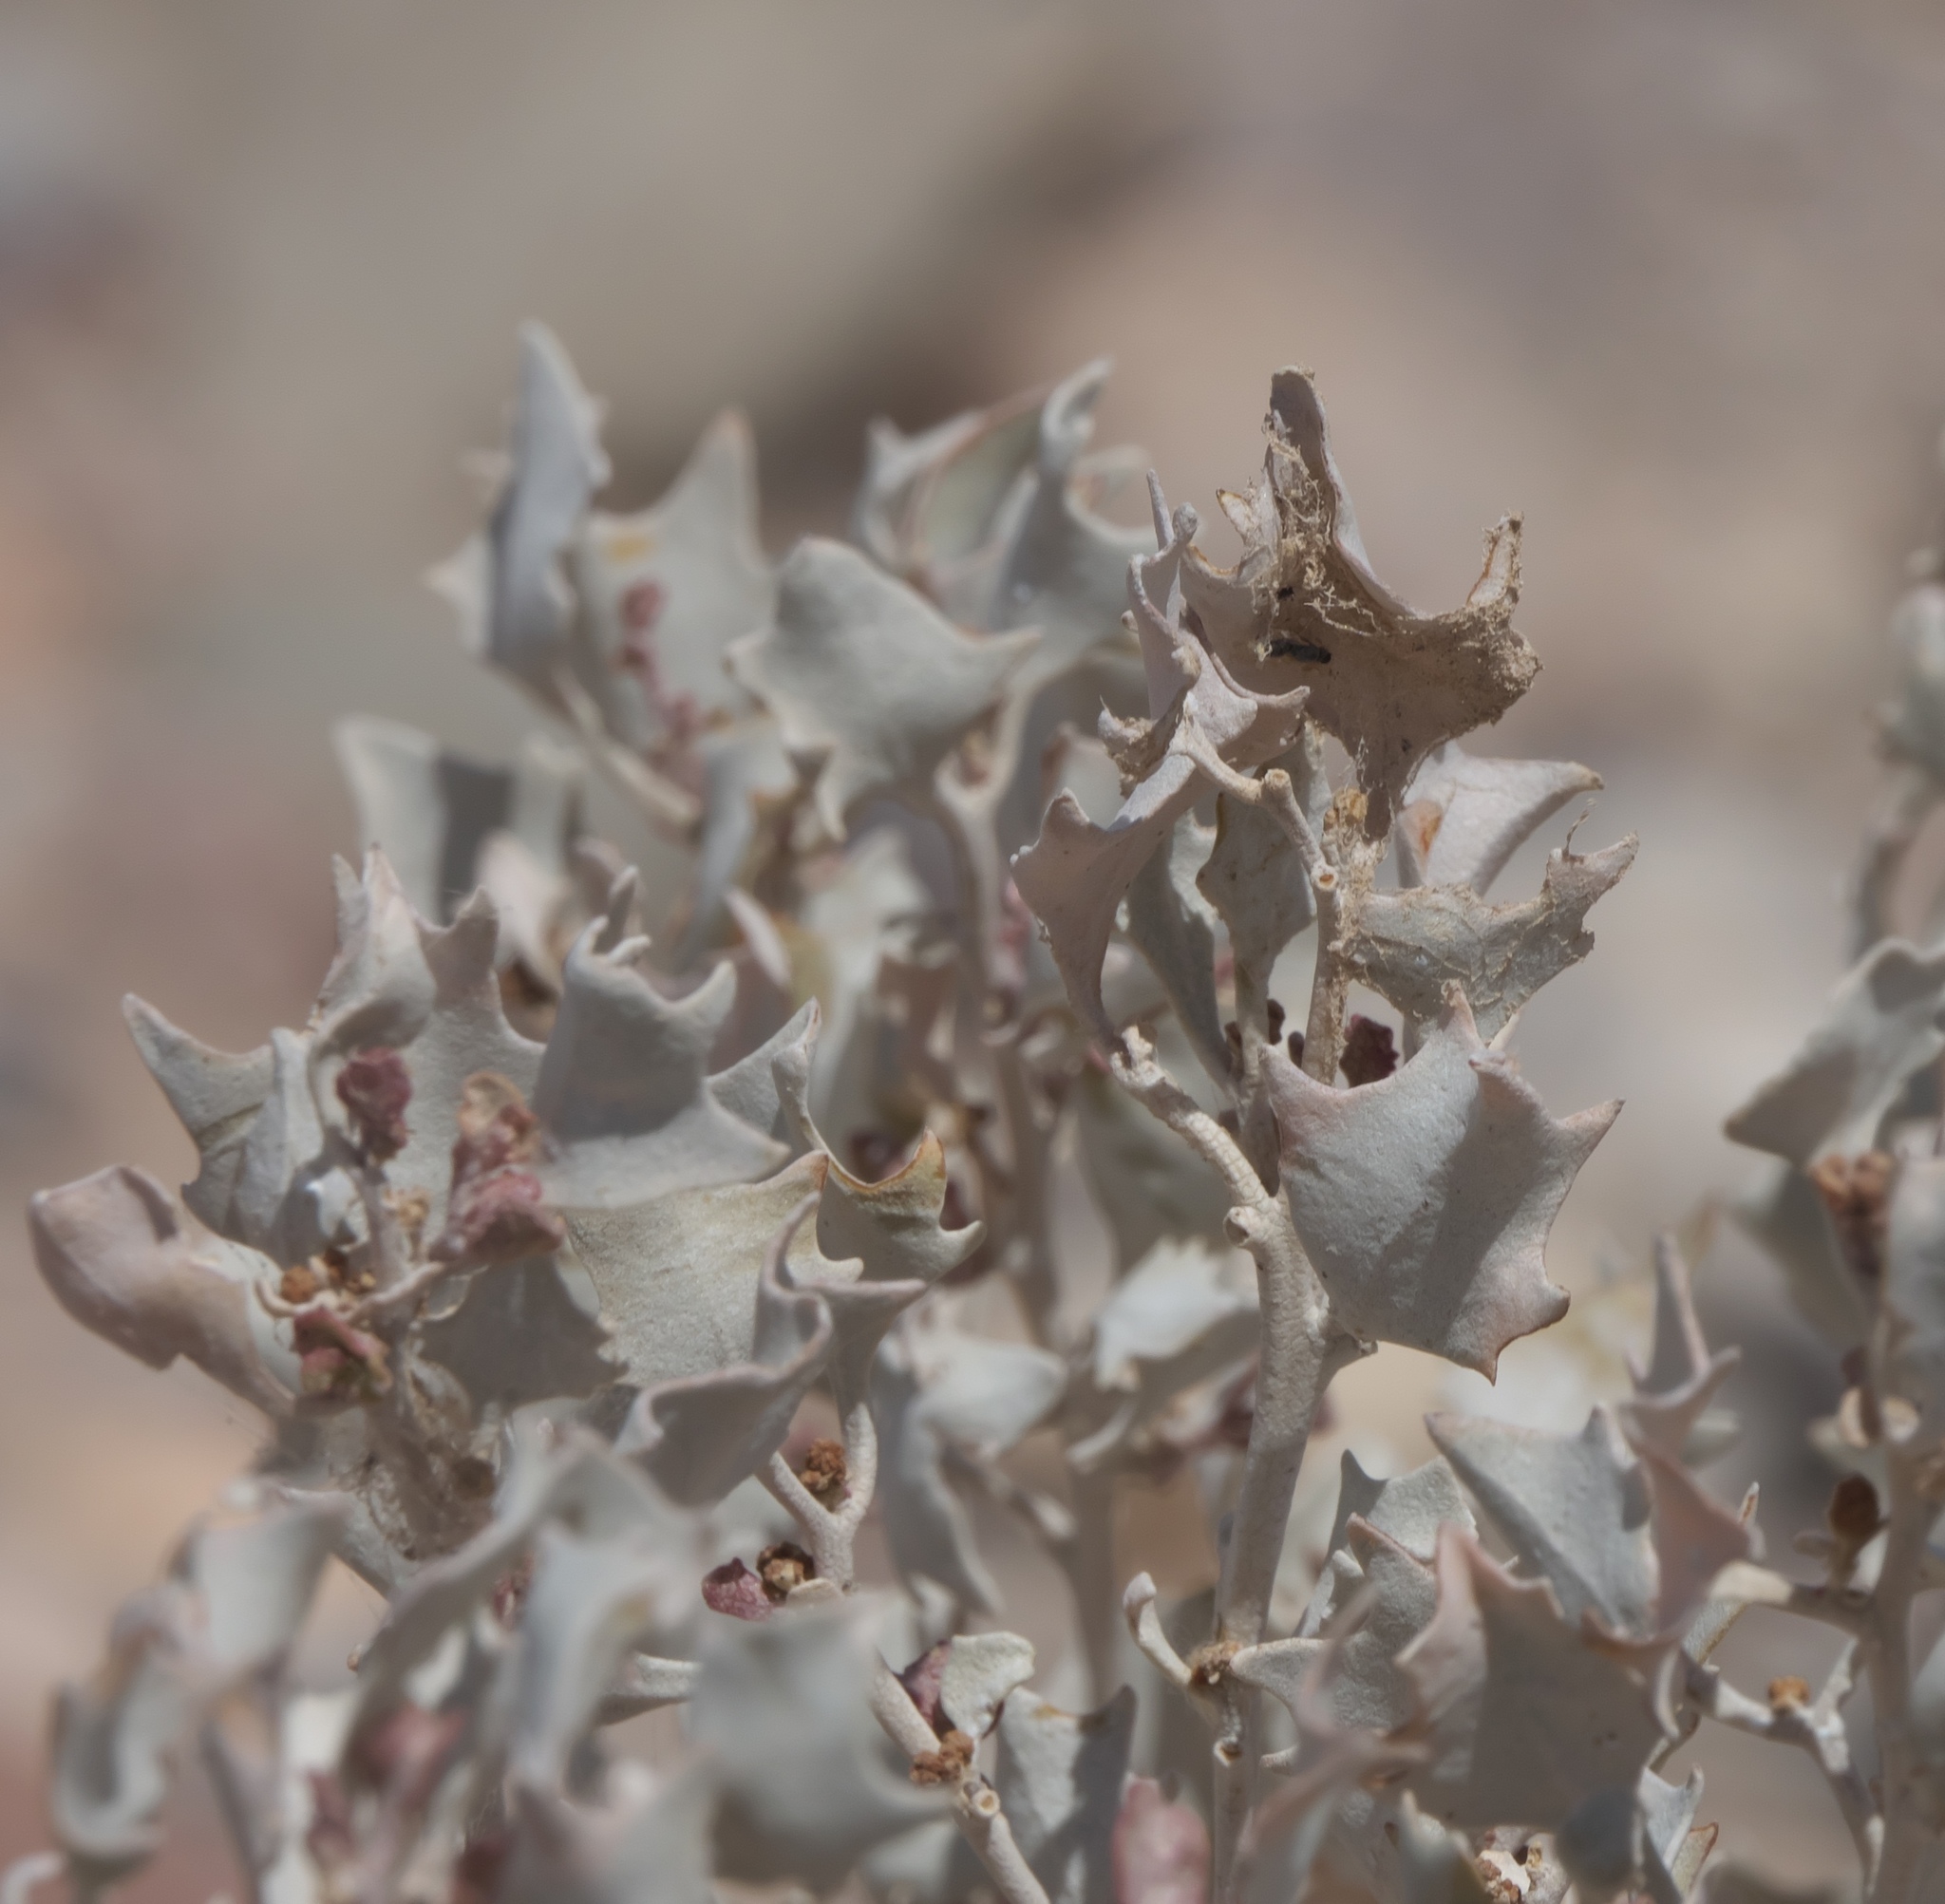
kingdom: Plantae
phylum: Tracheophyta
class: Magnoliopsida
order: Caryophyllales
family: Amaranthaceae
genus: Atriplex
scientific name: Atriplex hymenelytra
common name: Desert-holly
